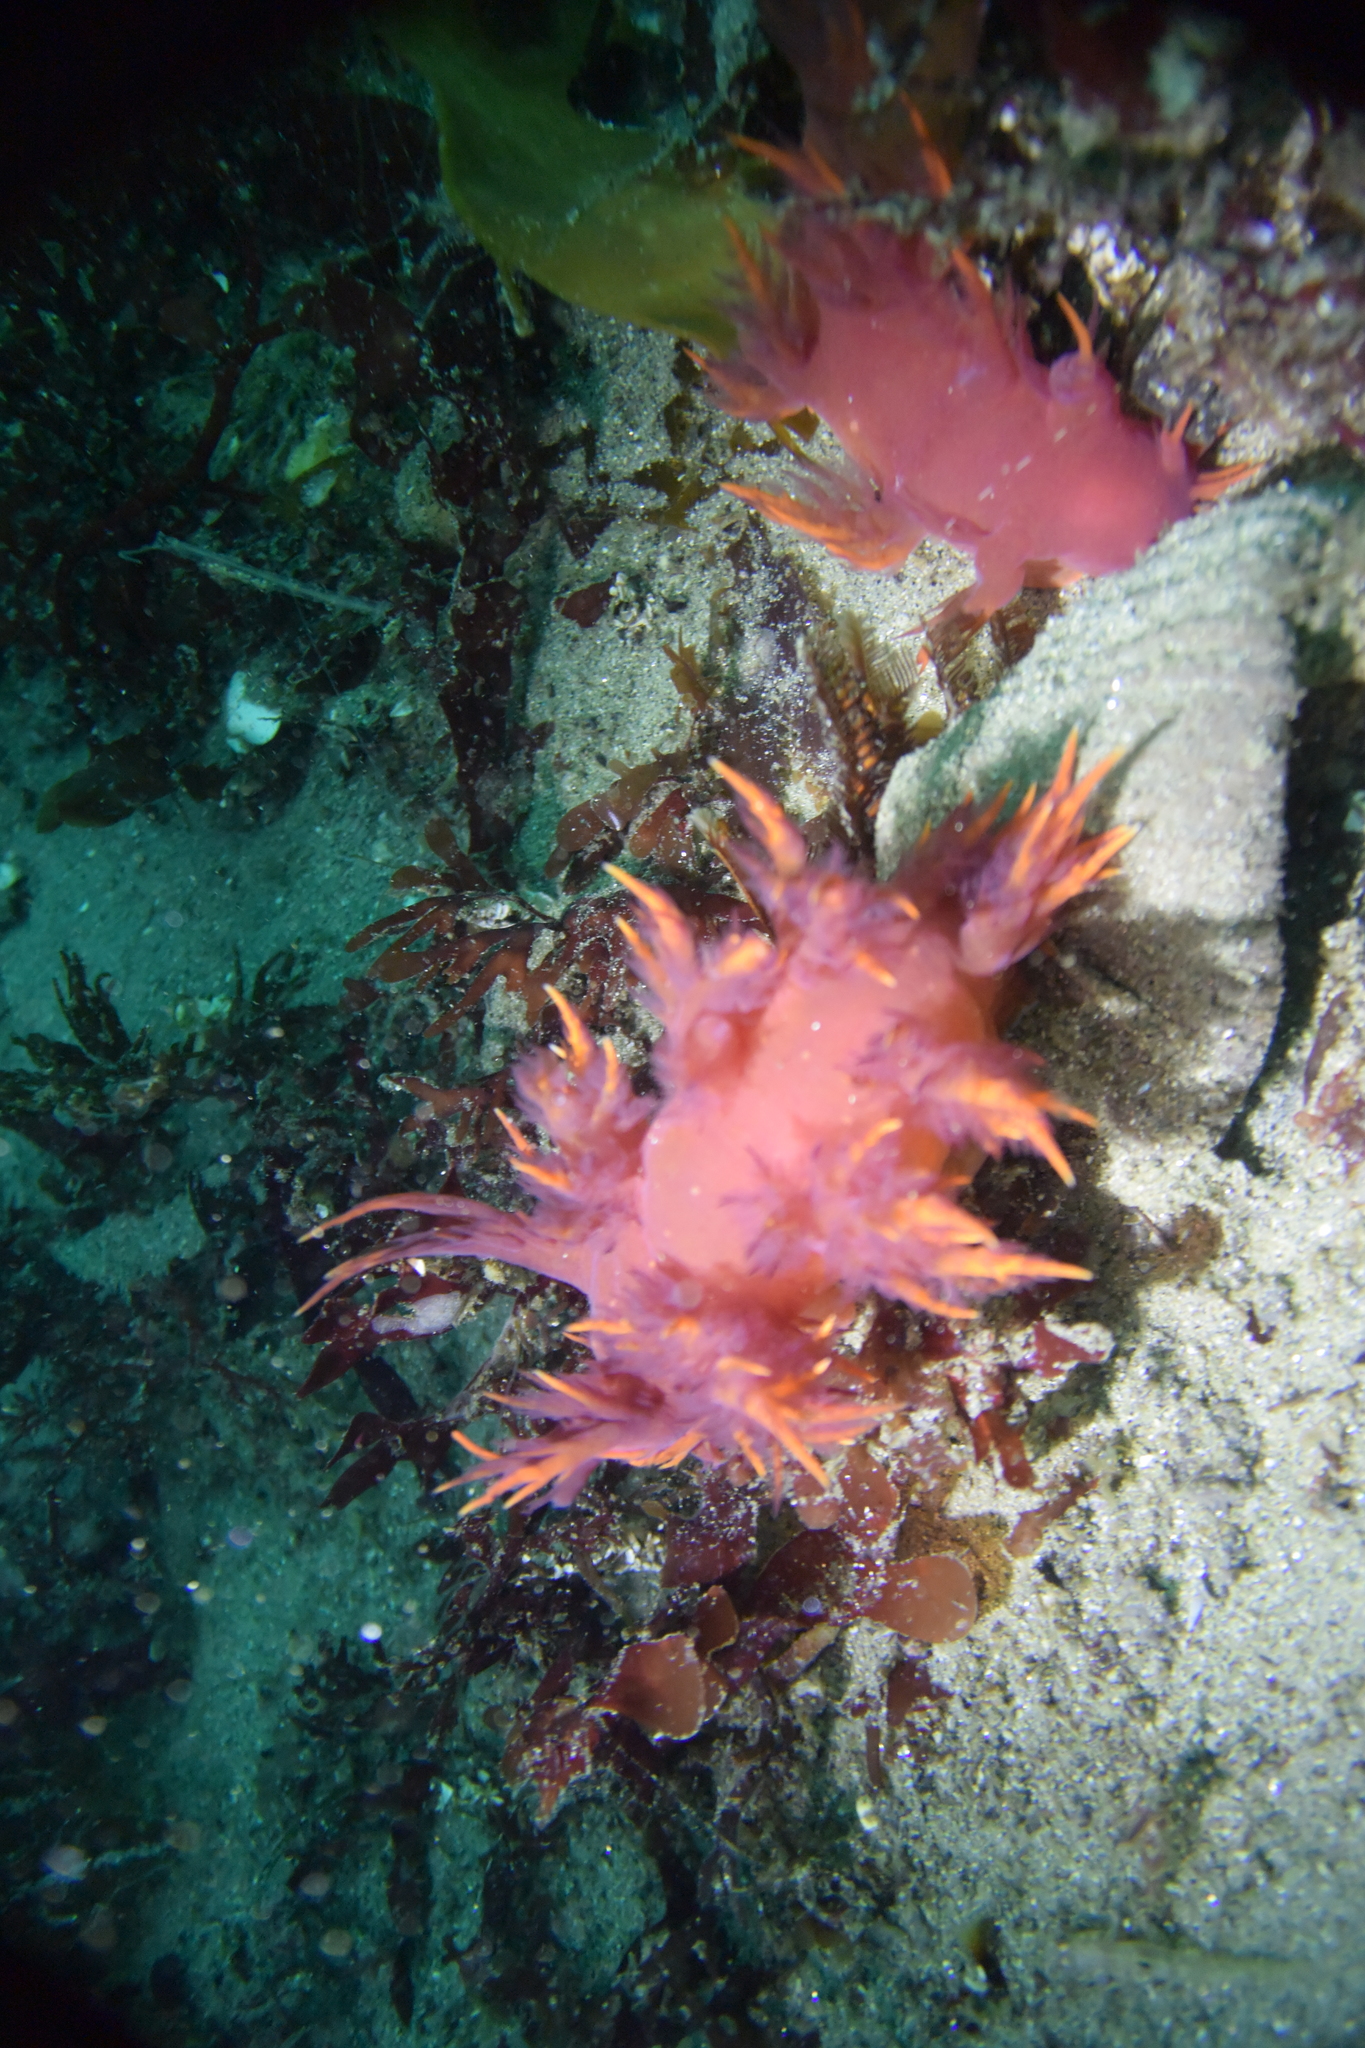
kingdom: Animalia
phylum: Mollusca
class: Gastropoda
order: Nudibranchia
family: Dendronotidae
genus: Dendronotus
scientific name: Dendronotus iris
